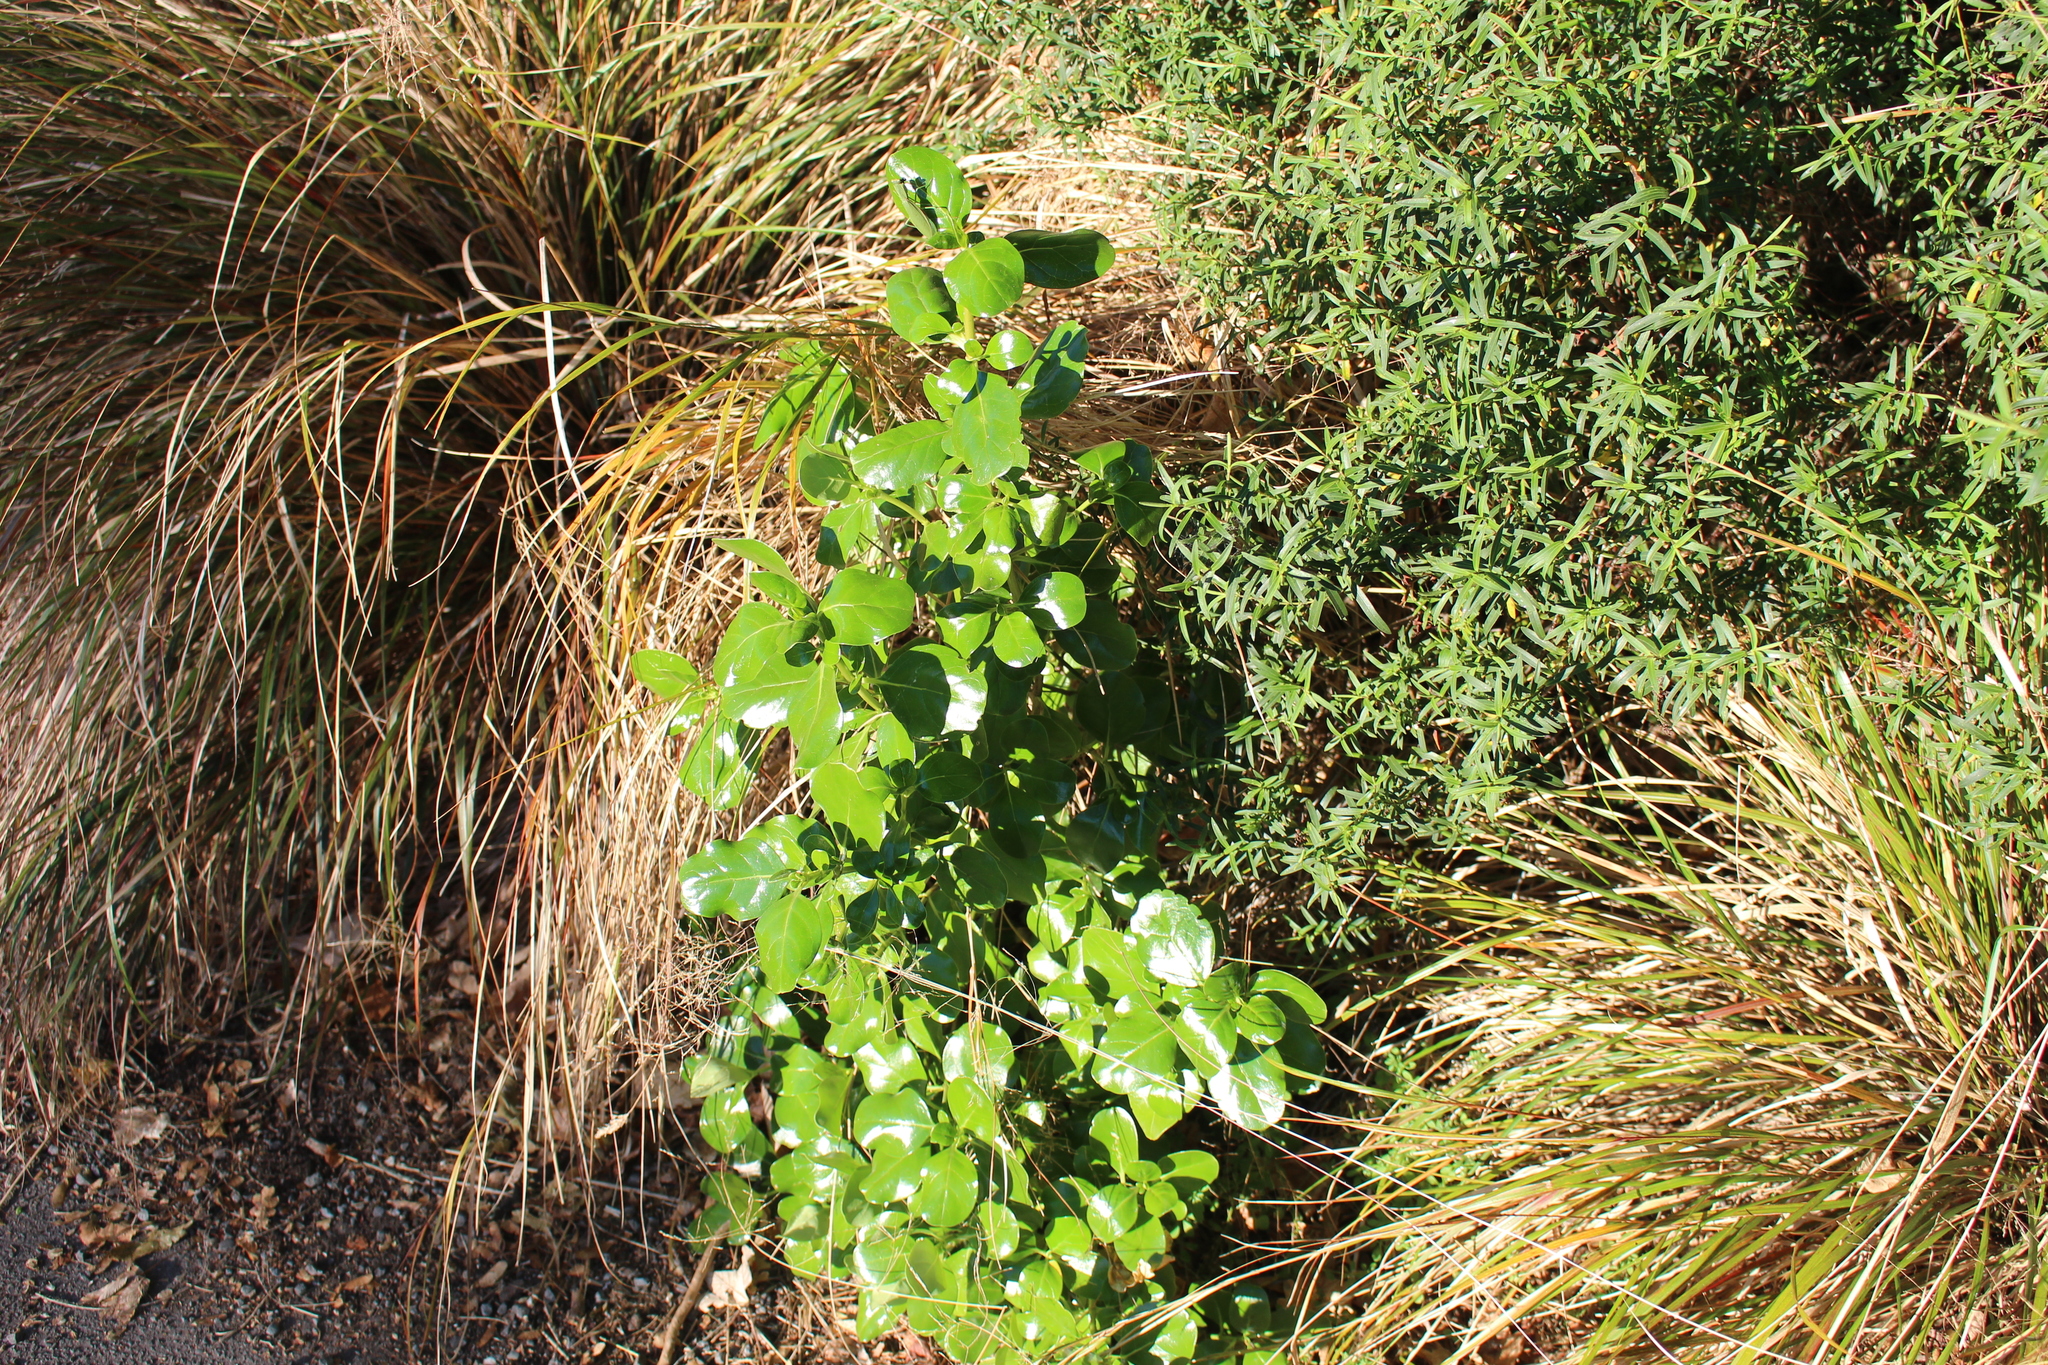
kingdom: Plantae
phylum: Tracheophyta
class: Magnoliopsida
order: Gentianales
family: Rubiaceae
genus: Coprosma
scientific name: Coprosma repens
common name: Tree bedstraw
